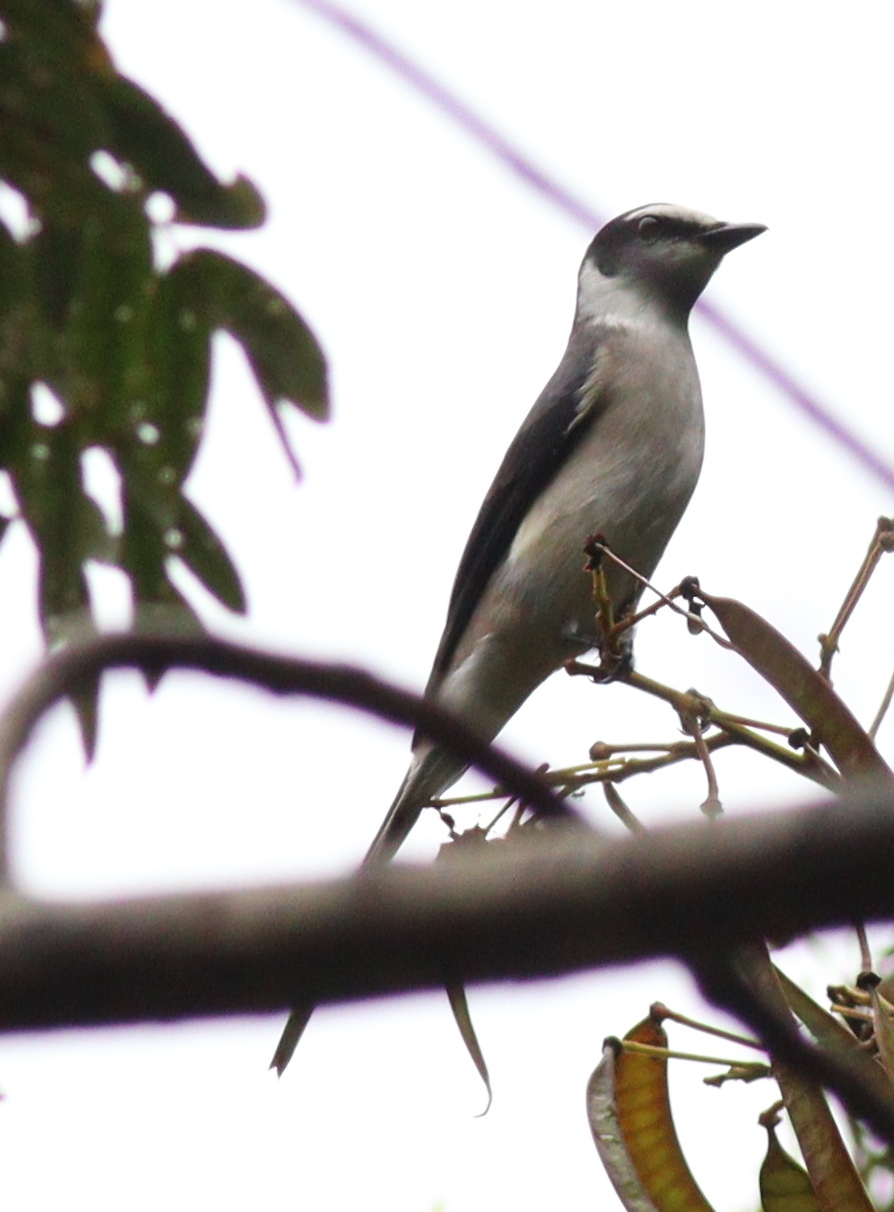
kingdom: Animalia
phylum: Chordata
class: Aves
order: Passeriformes
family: Campephagidae
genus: Pericrocotus
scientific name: Pericrocotus divaricatus
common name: Ashy minivet
